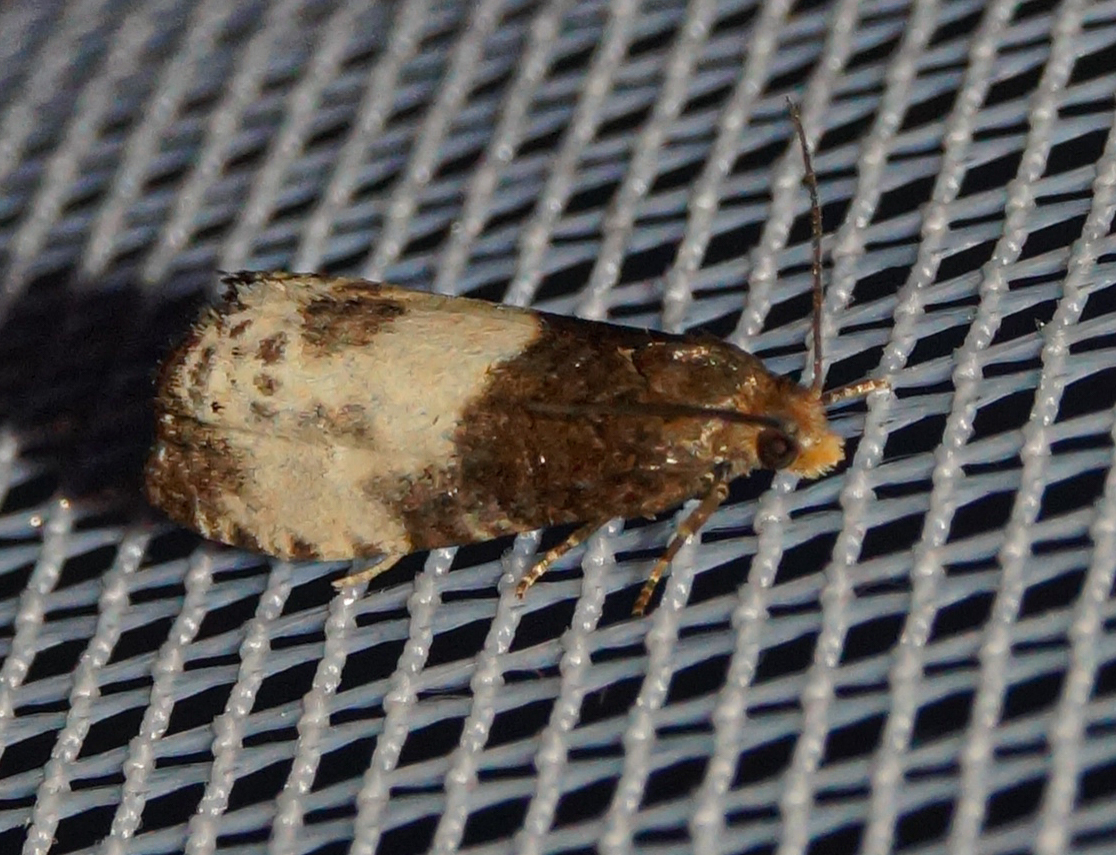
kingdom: Animalia
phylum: Arthropoda
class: Insecta
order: Lepidoptera
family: Tortricidae
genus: Notocelia
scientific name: Notocelia cynosbatella
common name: Yellow-faced bell moth
